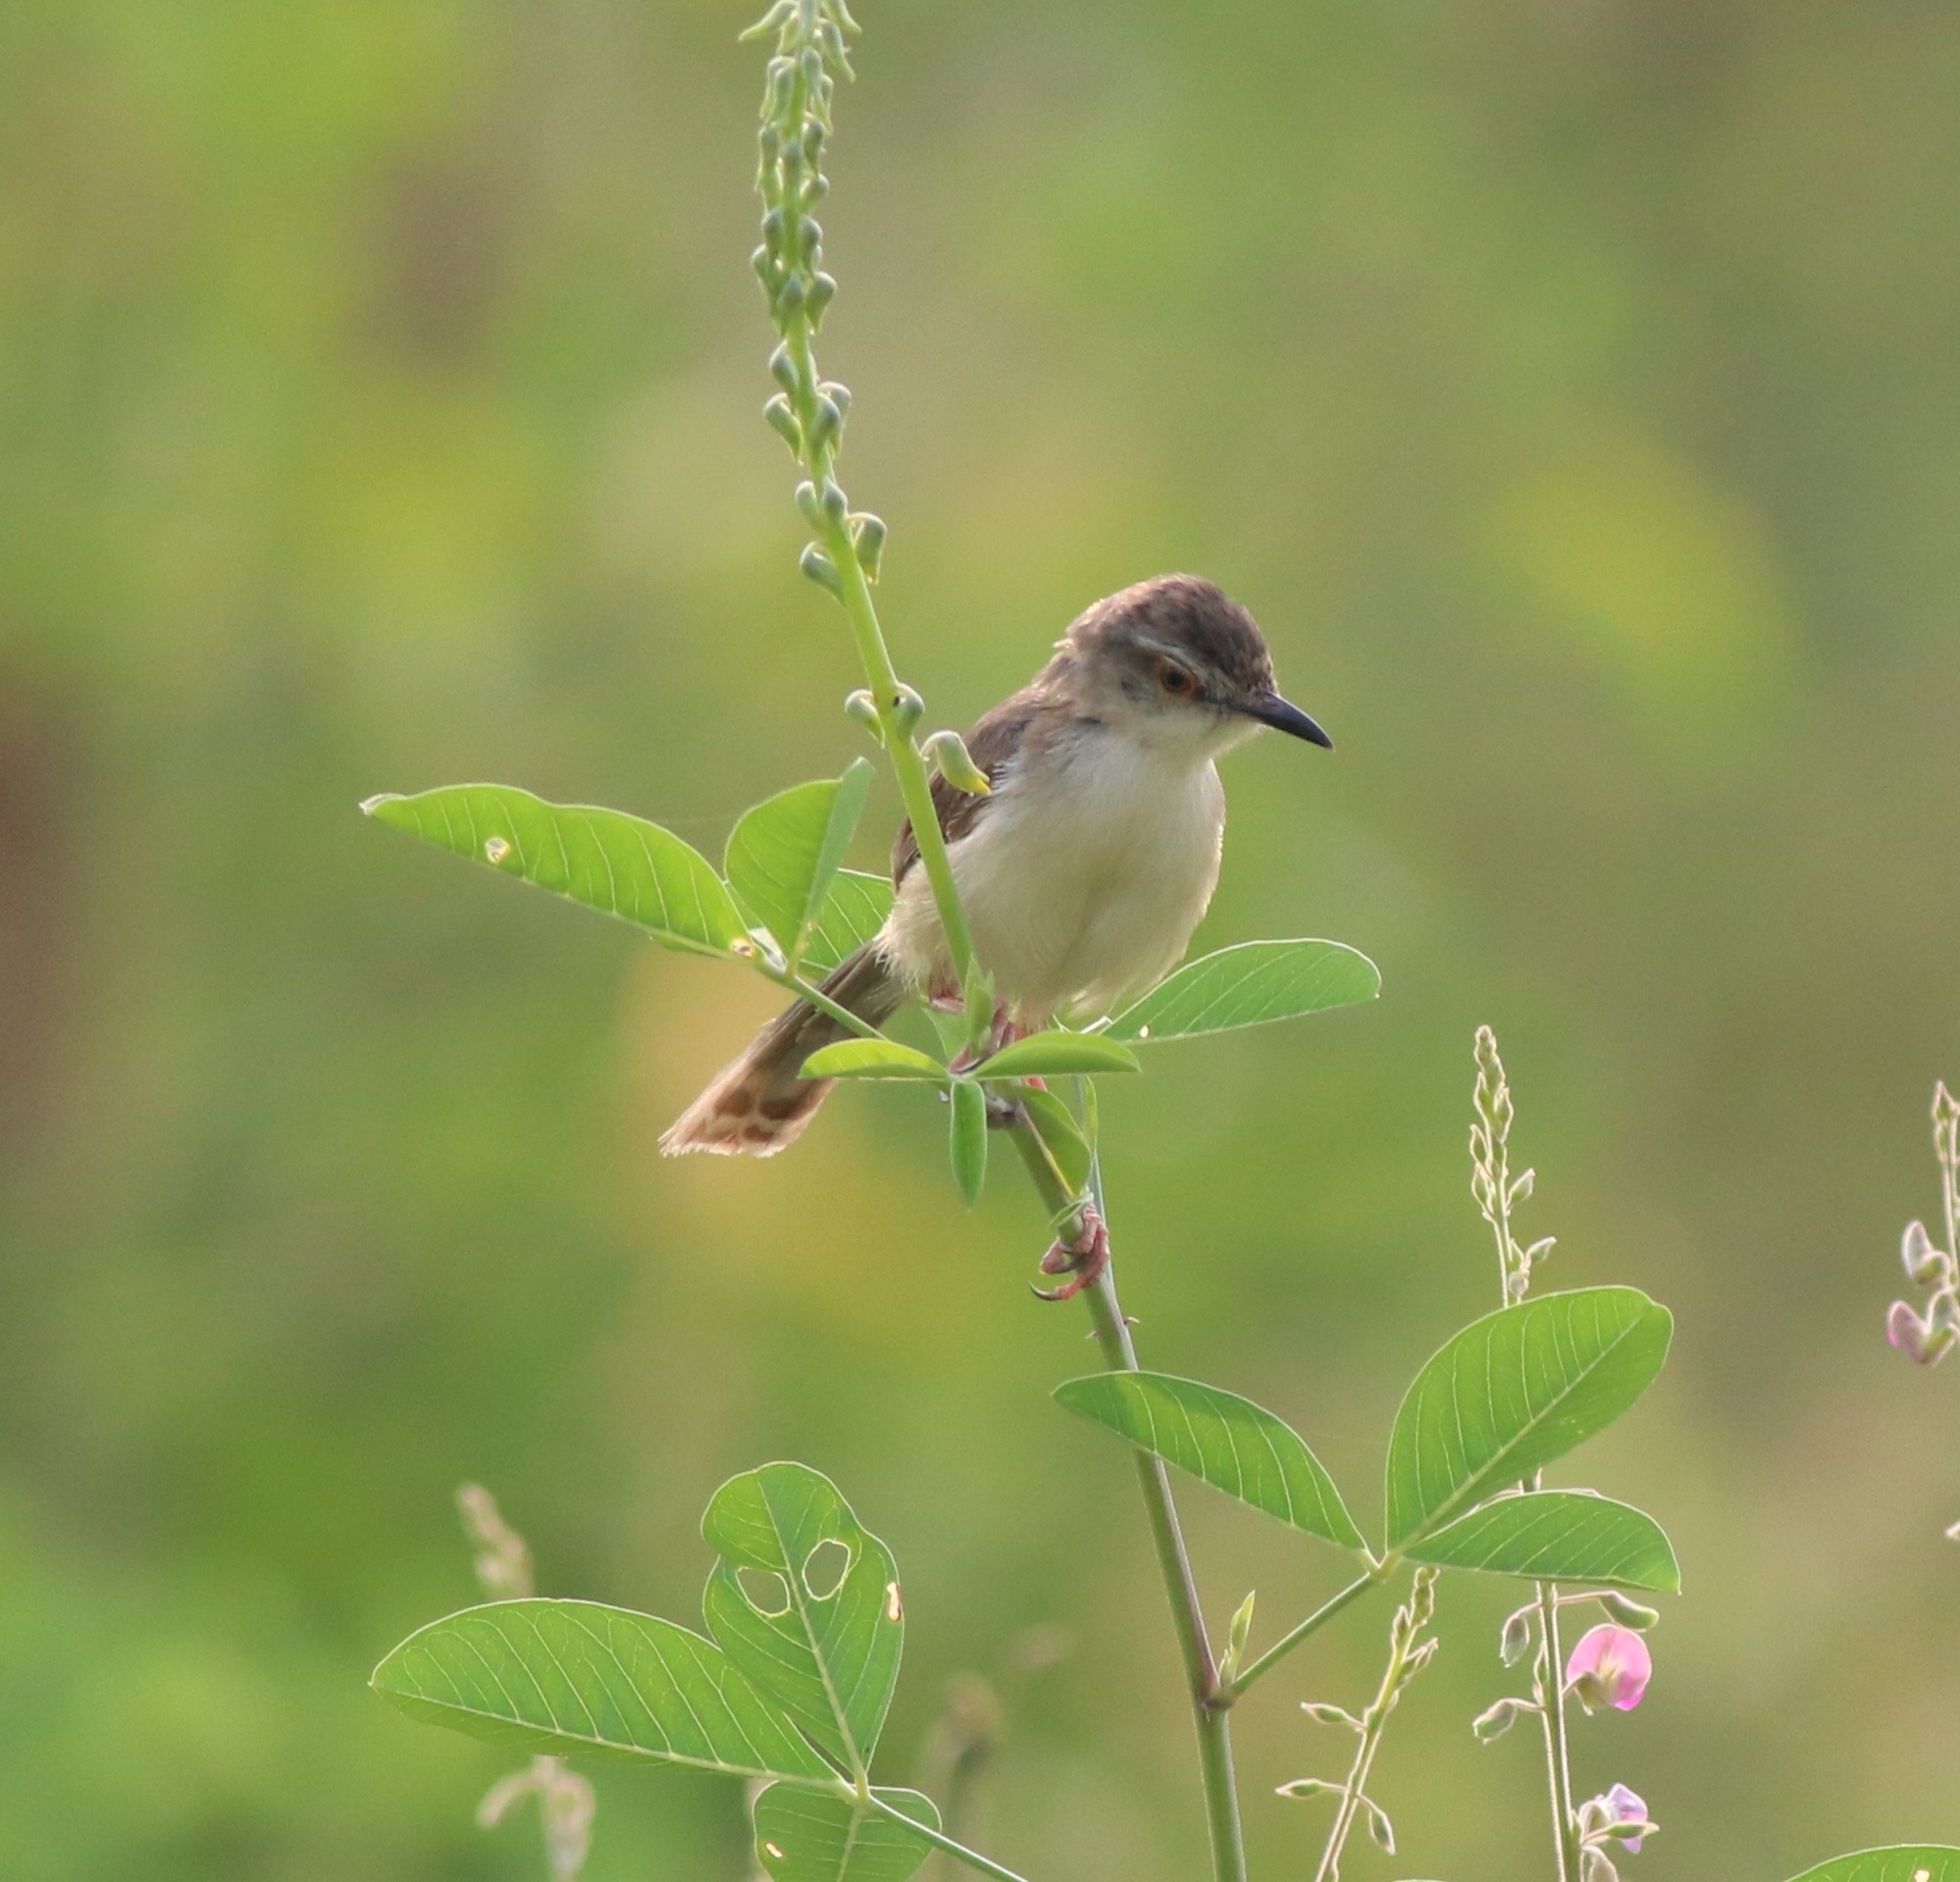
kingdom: Animalia
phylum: Chordata
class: Aves
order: Passeriformes
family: Cisticolidae
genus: Prinia
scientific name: Prinia inornata
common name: Plain prinia
